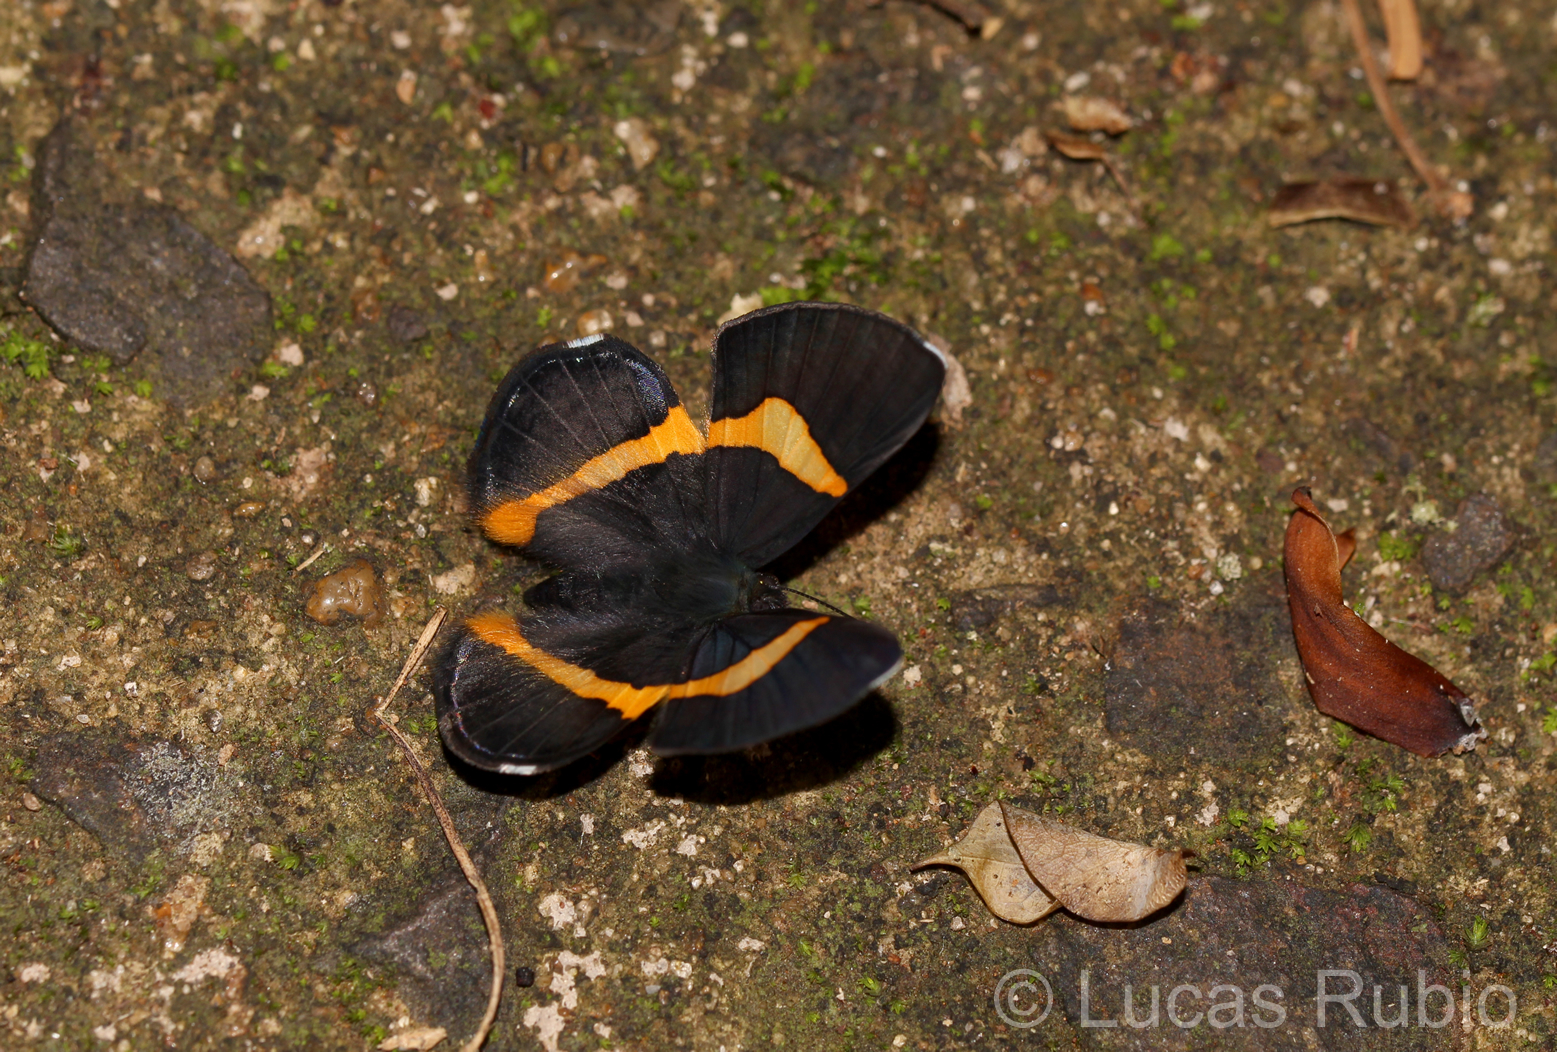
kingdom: Animalia
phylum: Arthropoda
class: Insecta
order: Lepidoptera
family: Riodinidae
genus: Notheme
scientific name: Notheme eumeus
